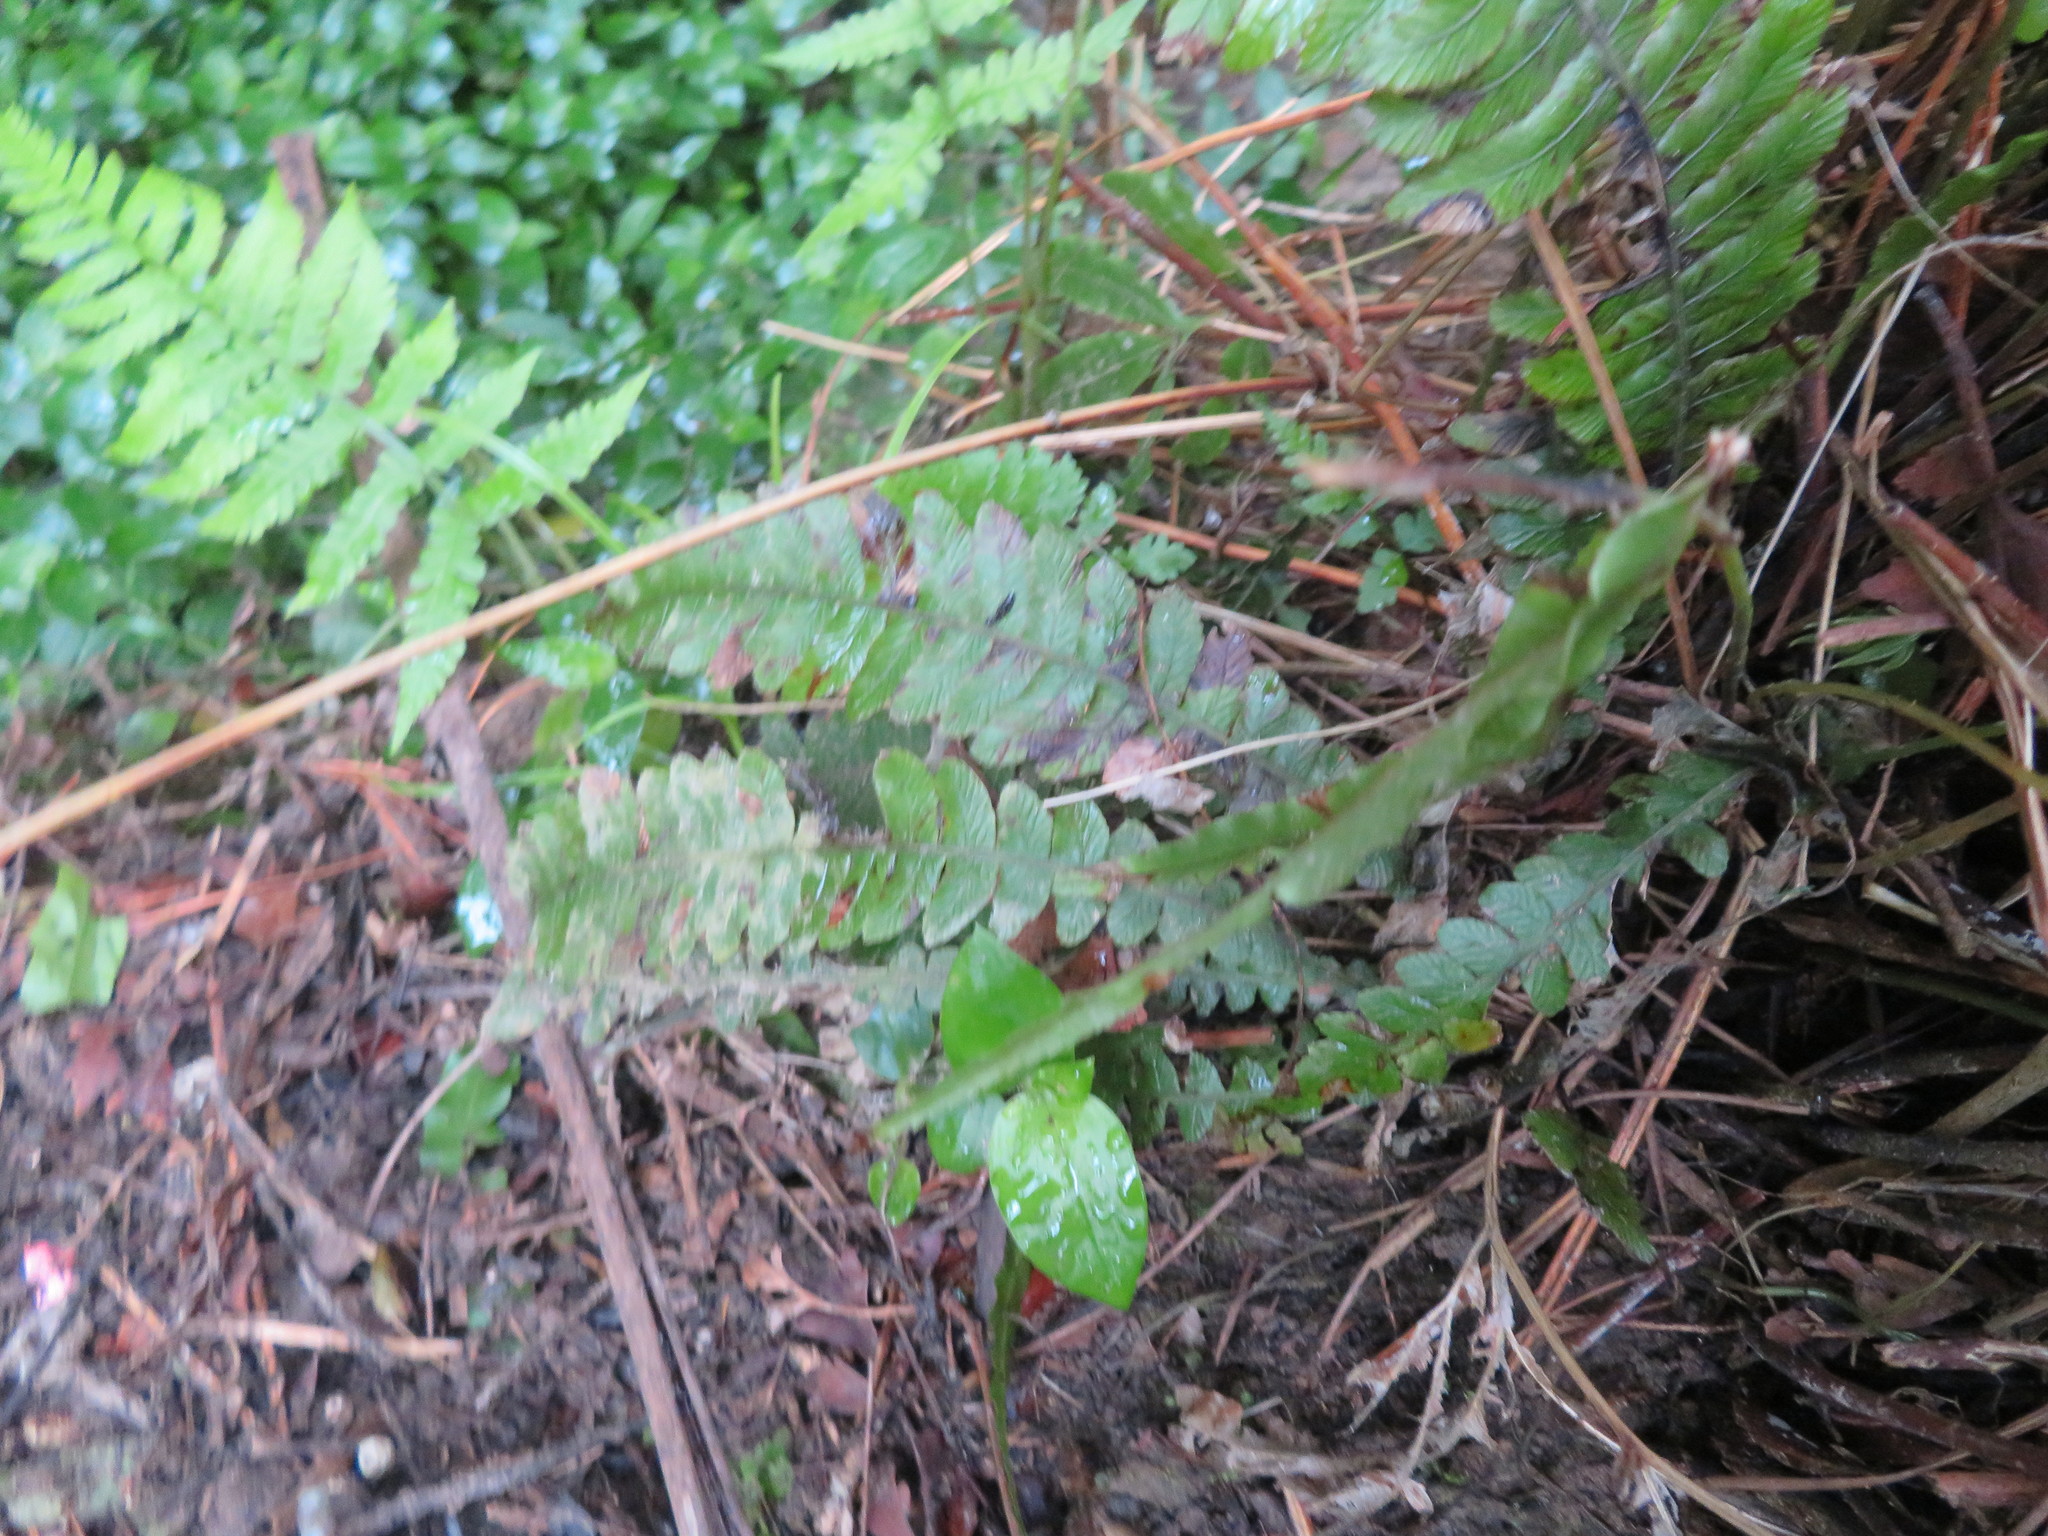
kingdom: Plantae
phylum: Tracheophyta
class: Polypodiopsida
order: Polypodiales
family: Blechnaceae
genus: Austroblechnum
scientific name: Austroblechnum lanceolatum
